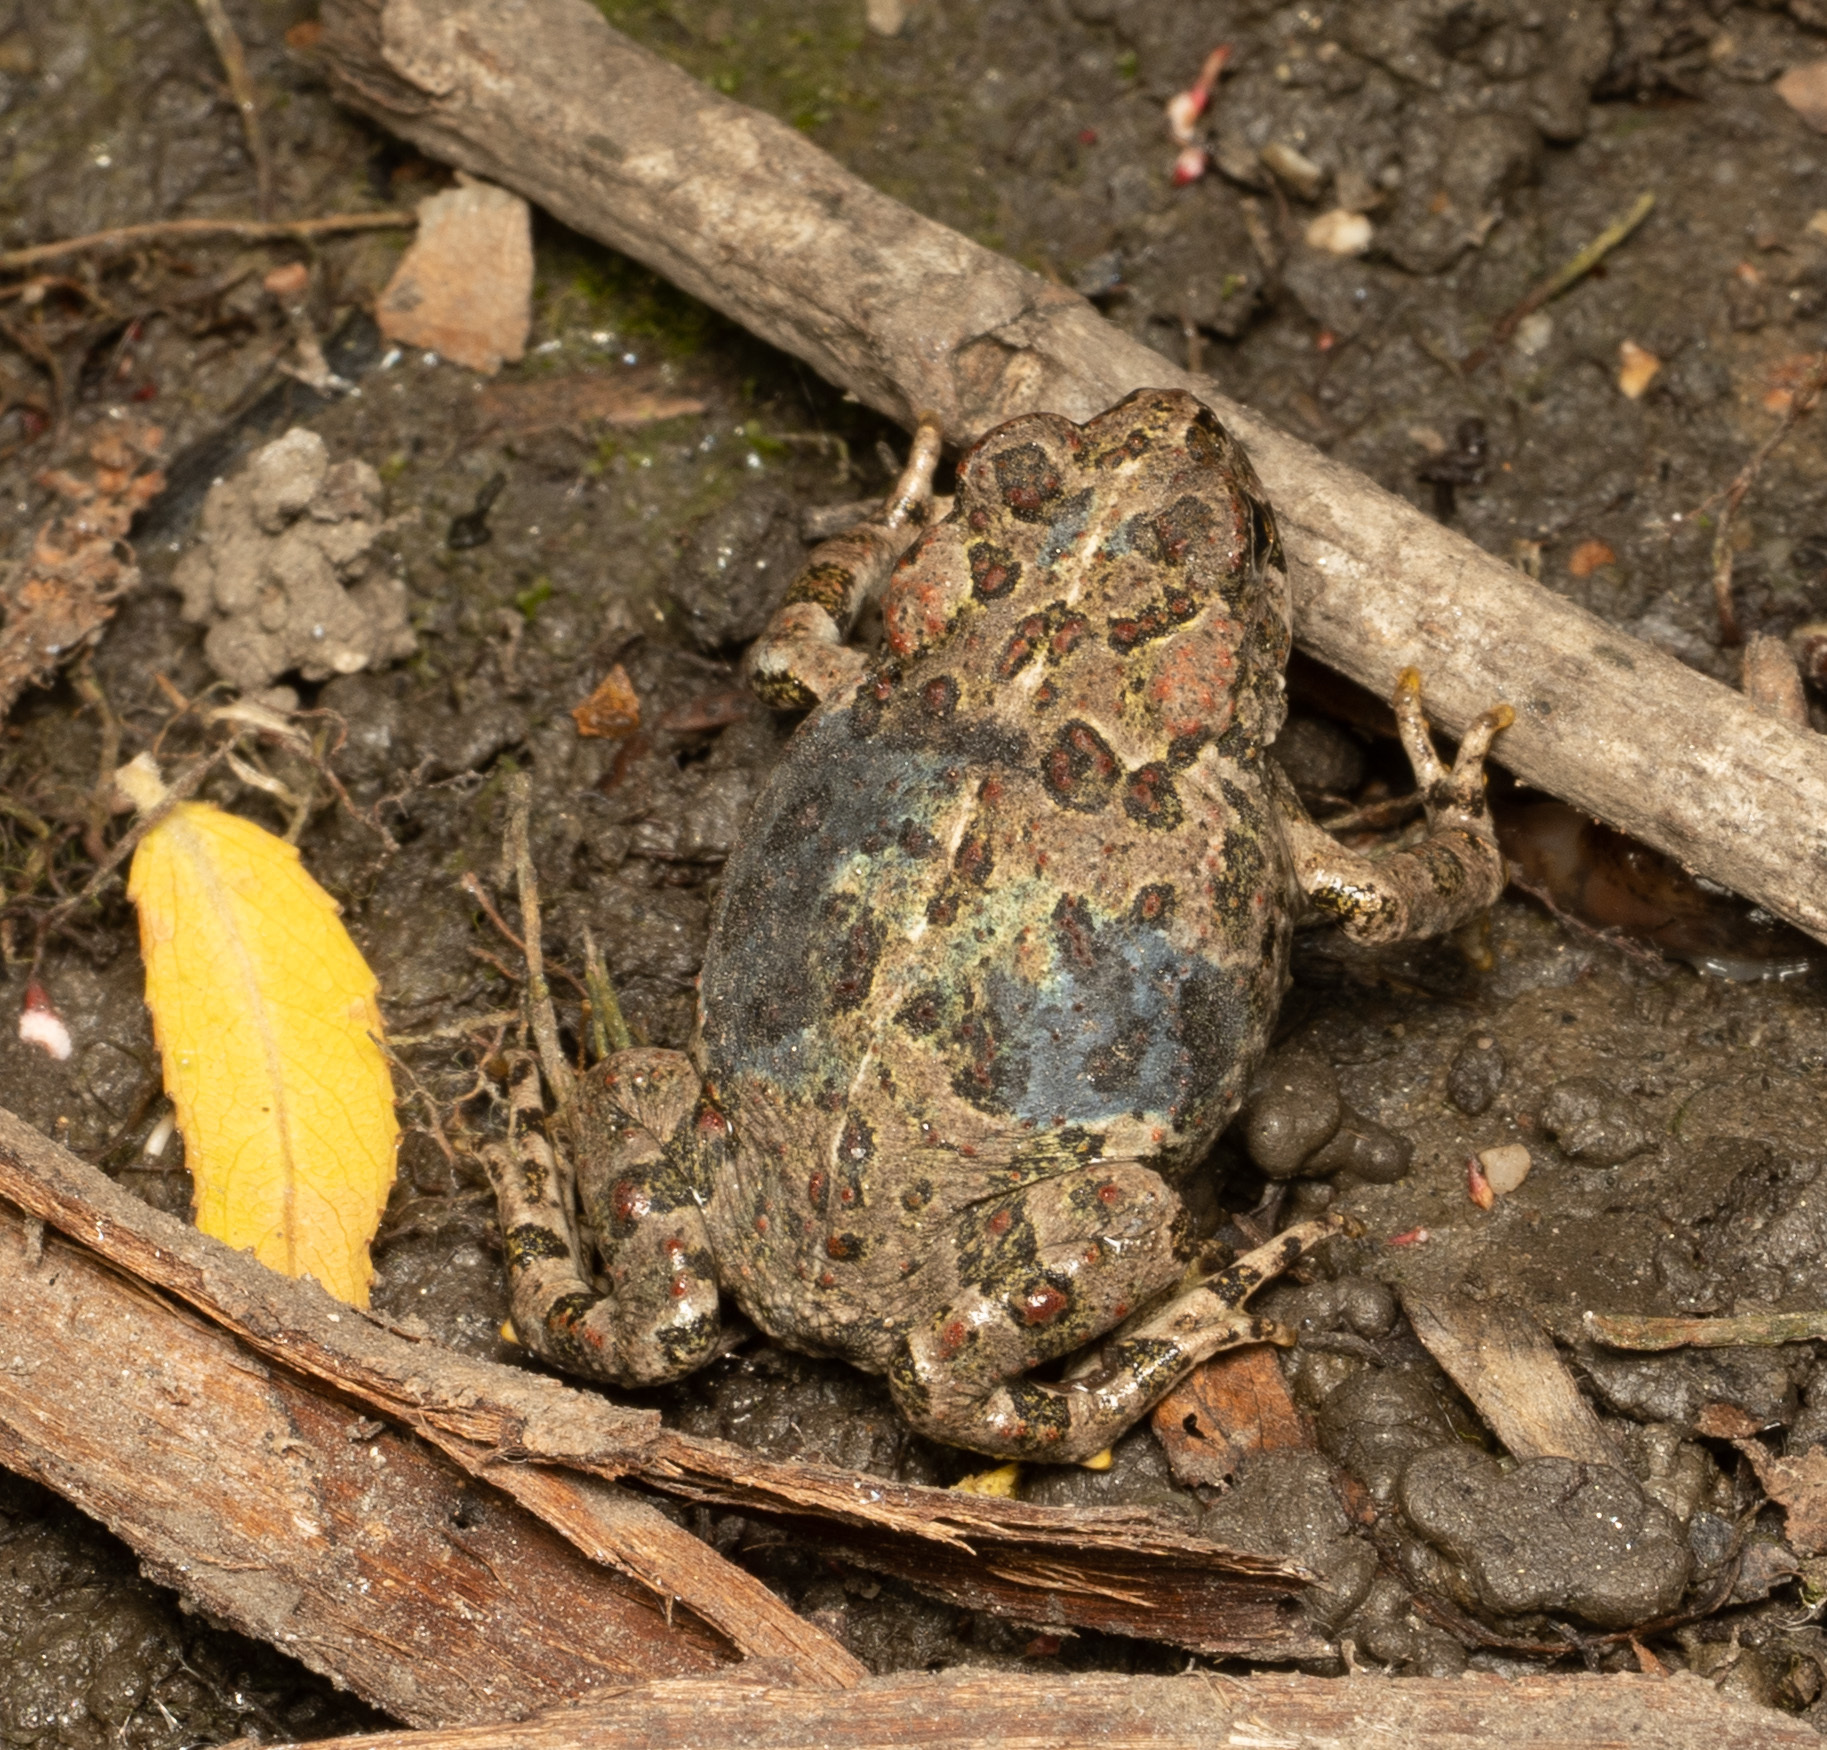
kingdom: Animalia
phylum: Chordata
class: Amphibia
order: Anura
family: Bufonidae
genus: Anaxyrus
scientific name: Anaxyrus boreas
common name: Western toad
